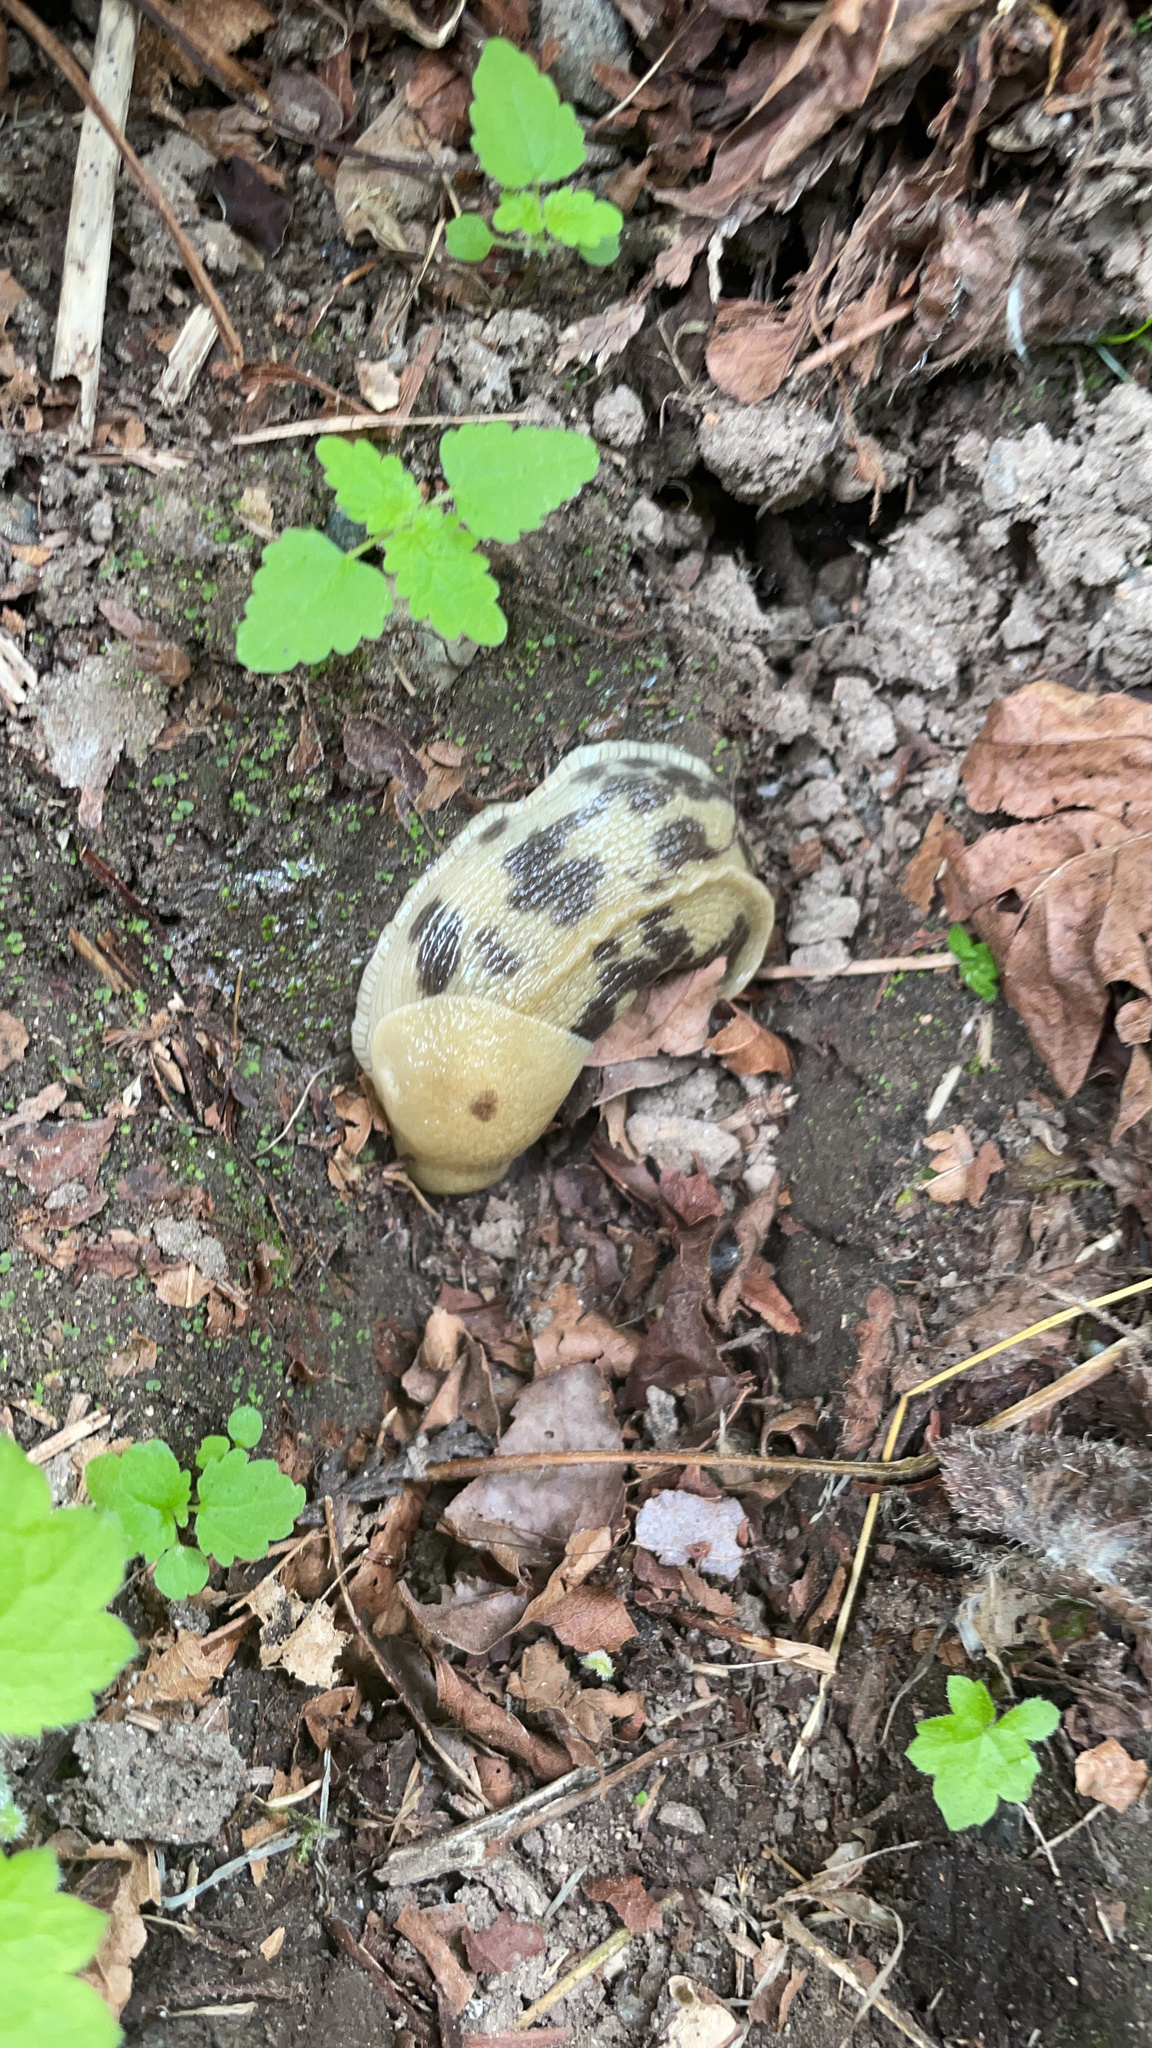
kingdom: Animalia
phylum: Mollusca
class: Gastropoda
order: Stylommatophora
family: Ariolimacidae
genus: Ariolimax
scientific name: Ariolimax columbianus
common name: Pacific banana slug
